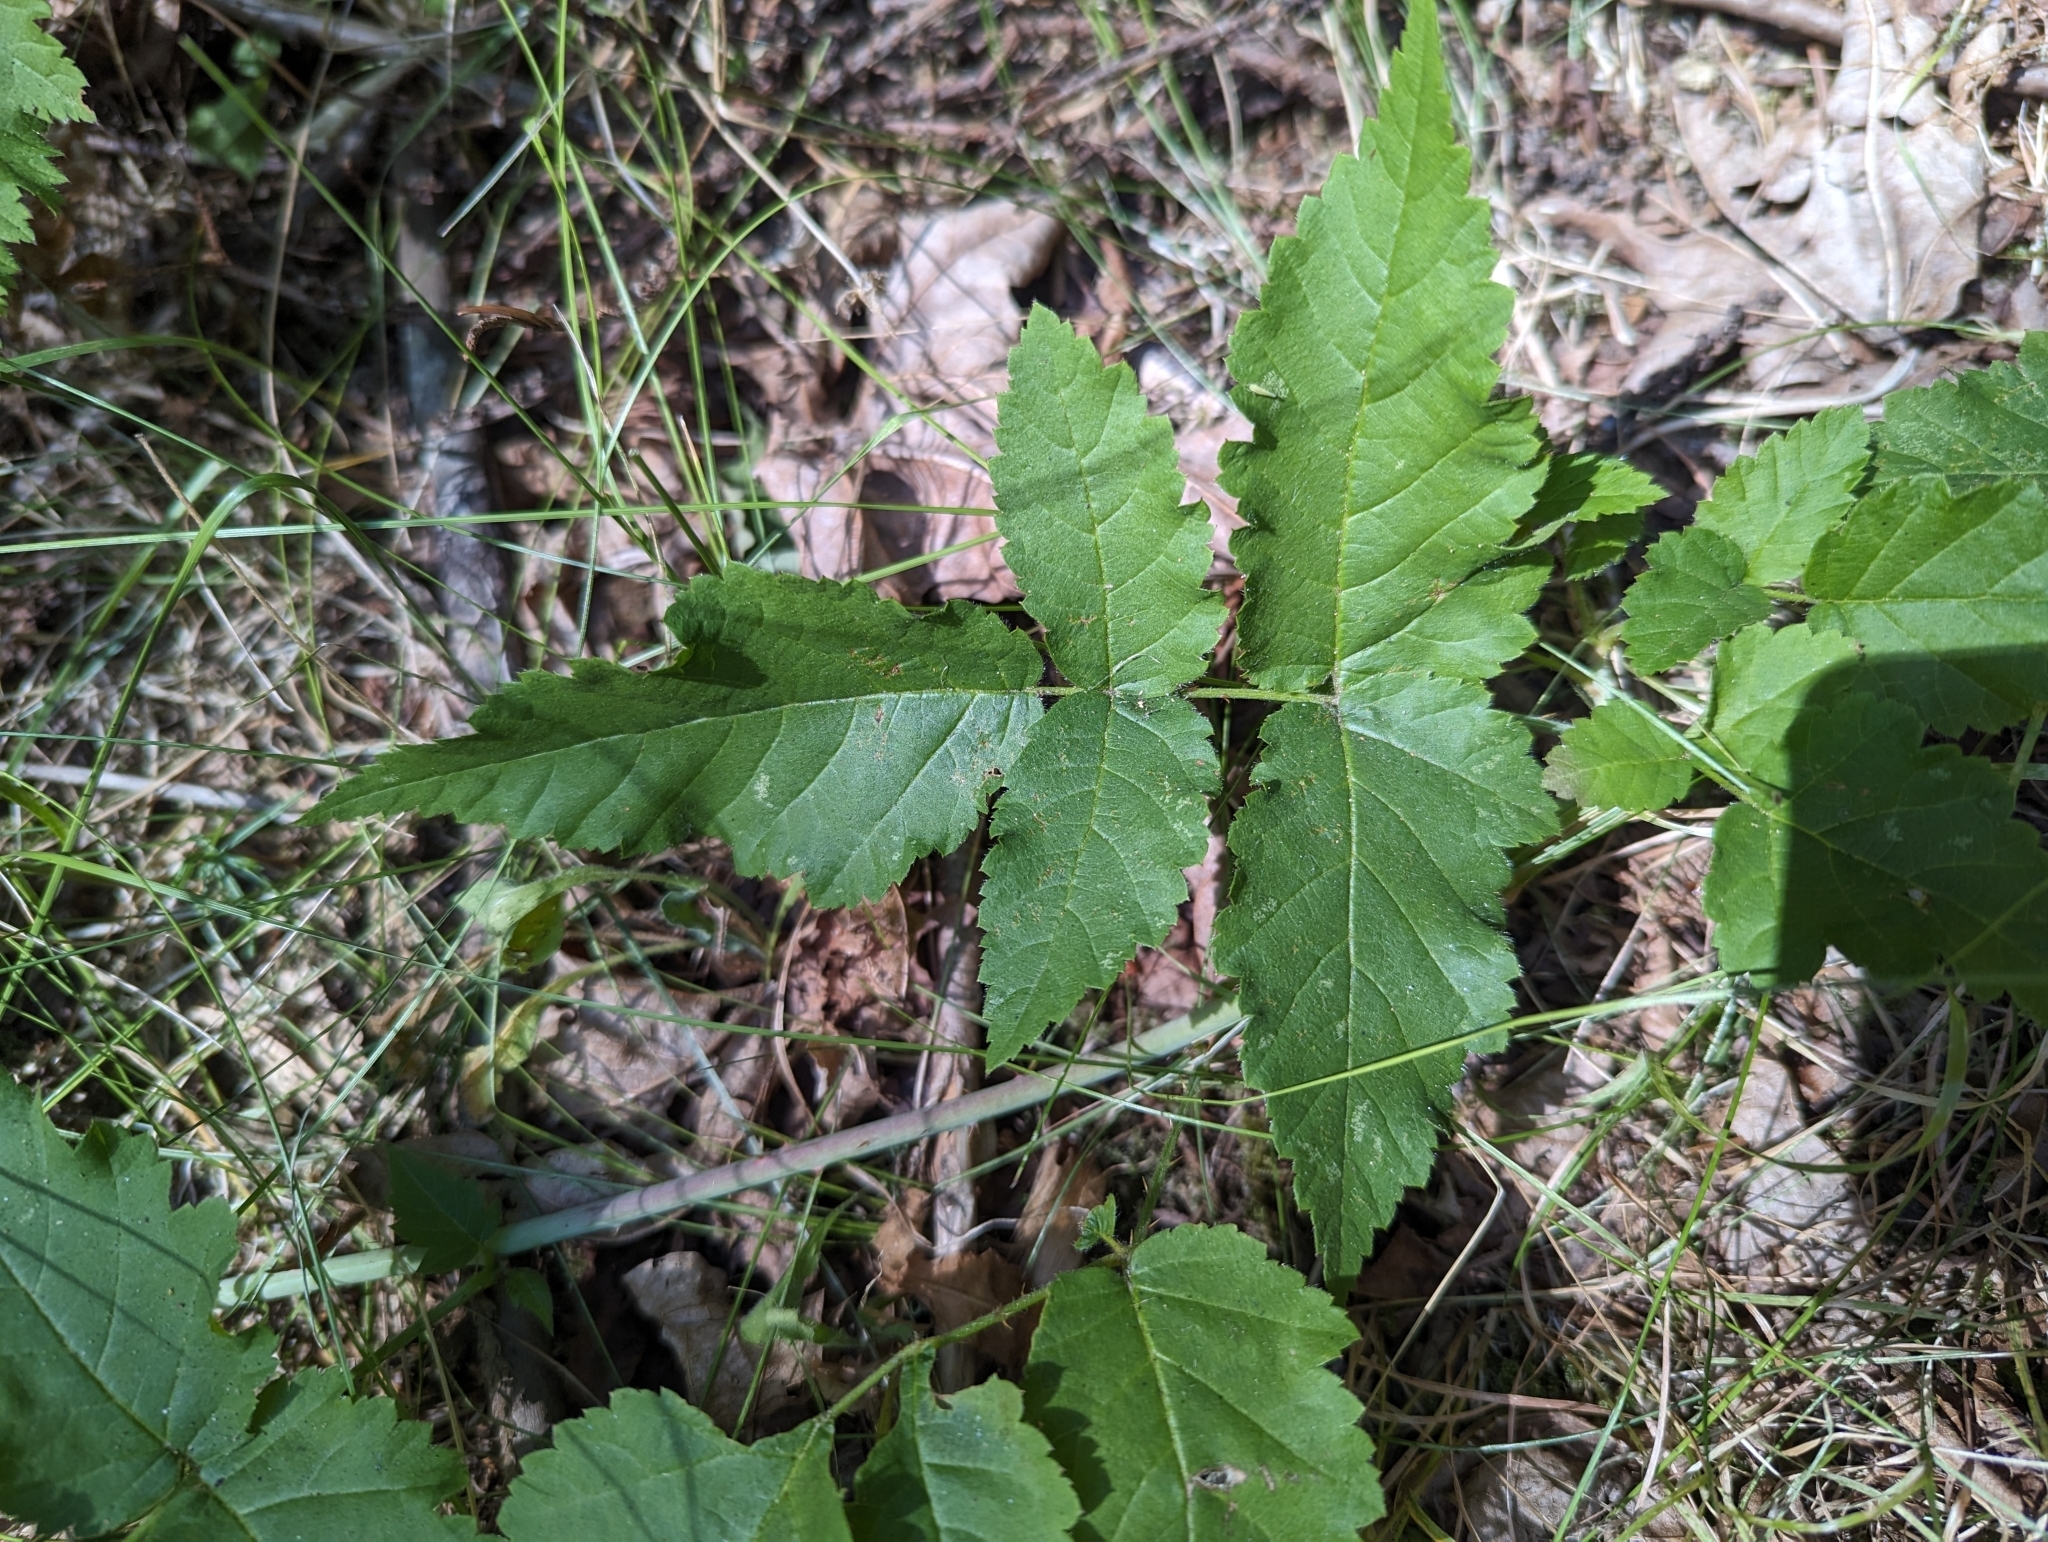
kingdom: Plantae
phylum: Tracheophyta
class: Magnoliopsida
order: Rosales
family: Rosaceae
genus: Rubus
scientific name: Rubus ursinus
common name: Pacific blackberry
